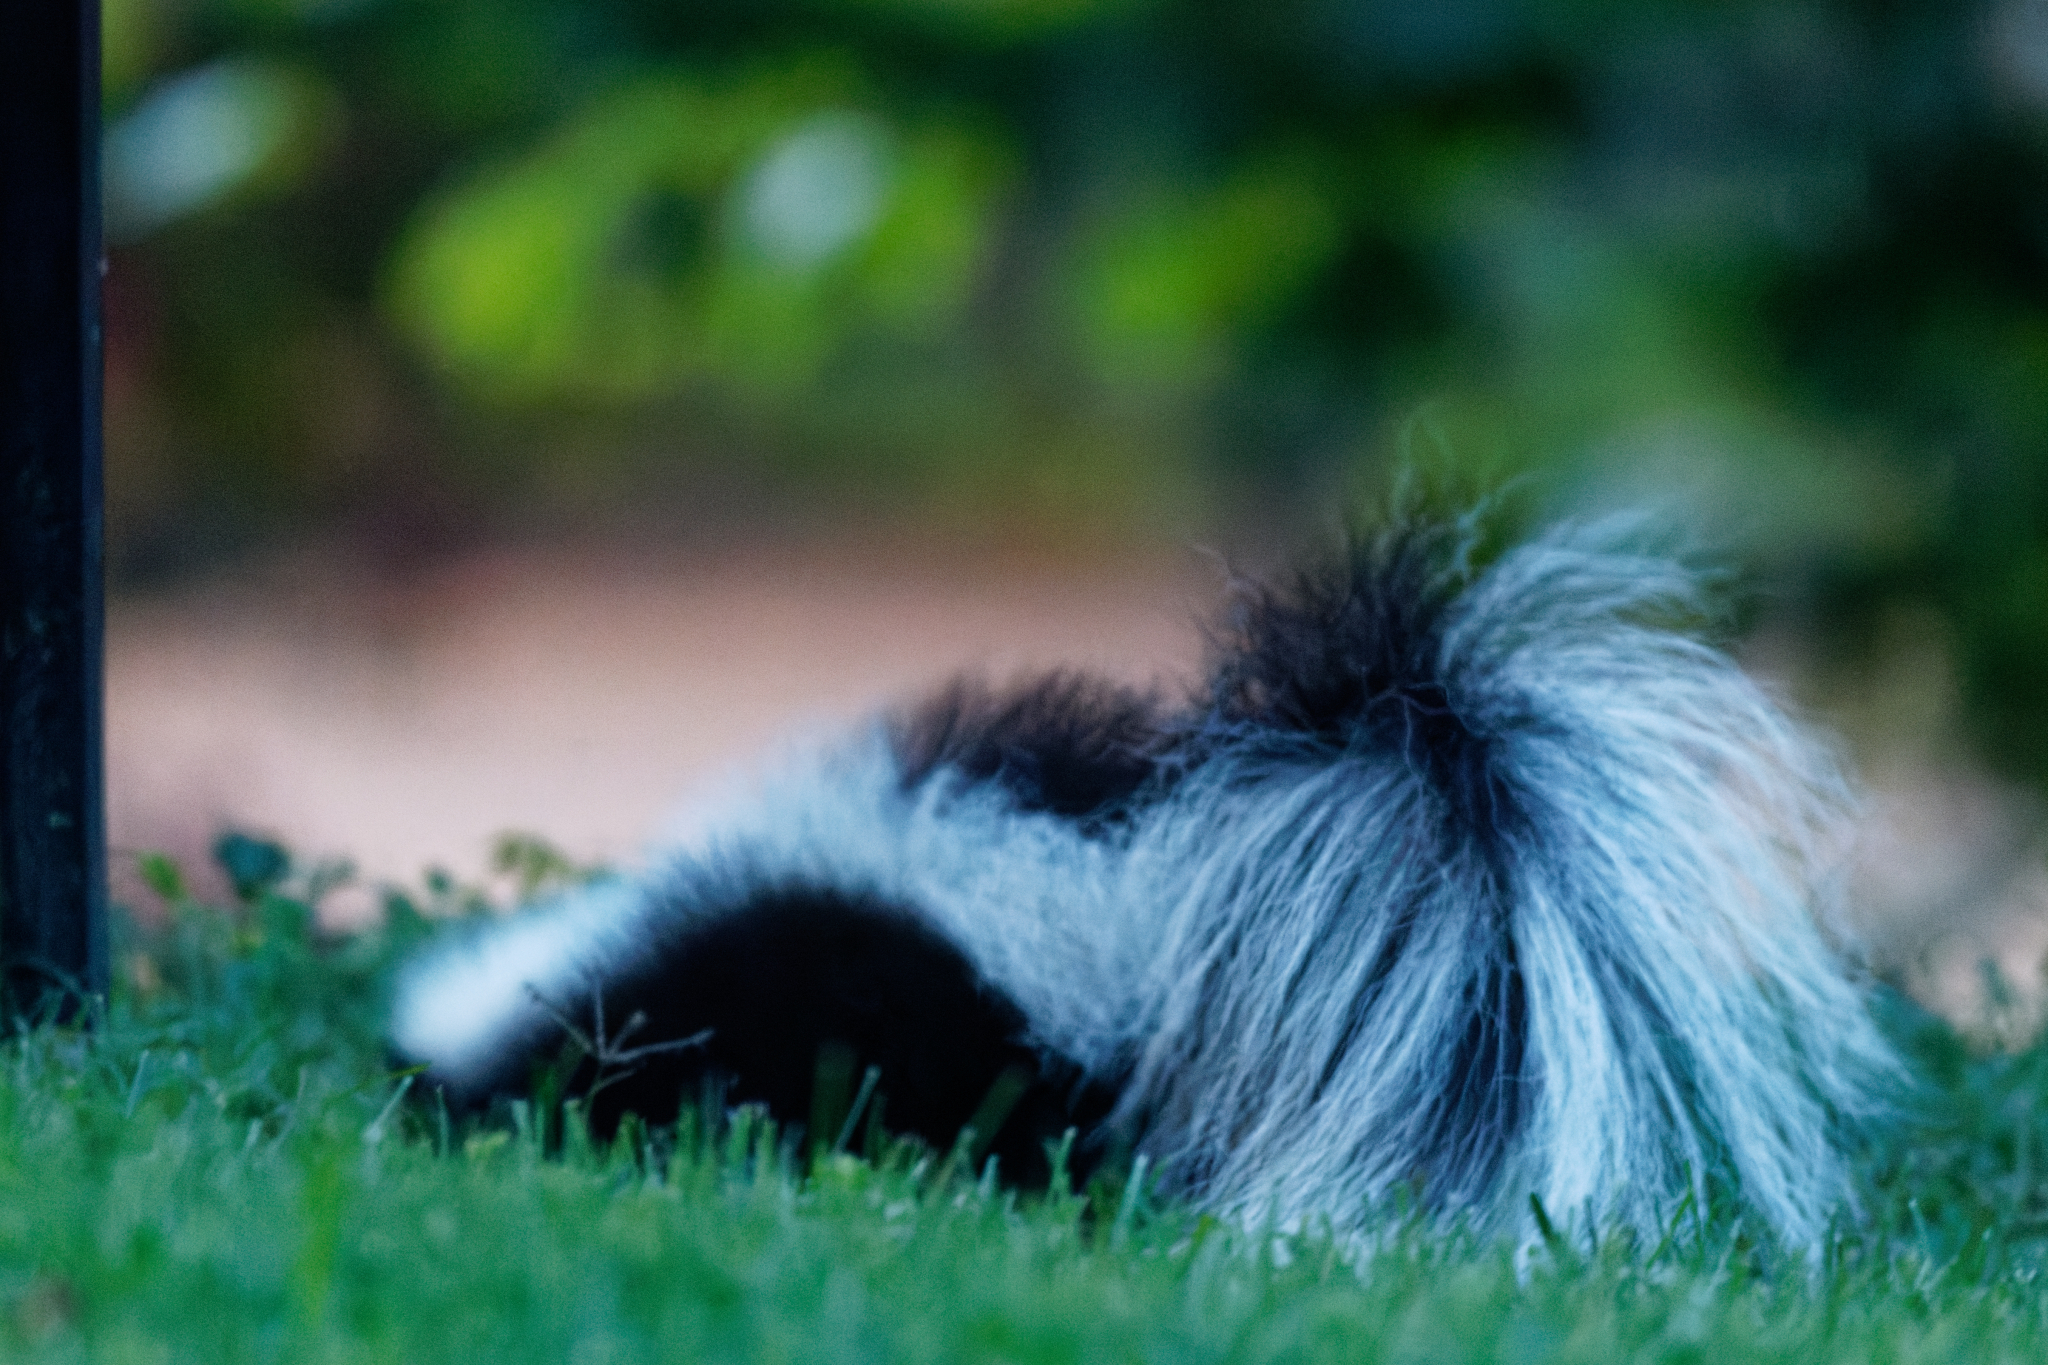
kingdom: Animalia
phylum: Chordata
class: Mammalia
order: Carnivora
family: Mephitidae
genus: Mephitis
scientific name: Mephitis mephitis
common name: Striped skunk
